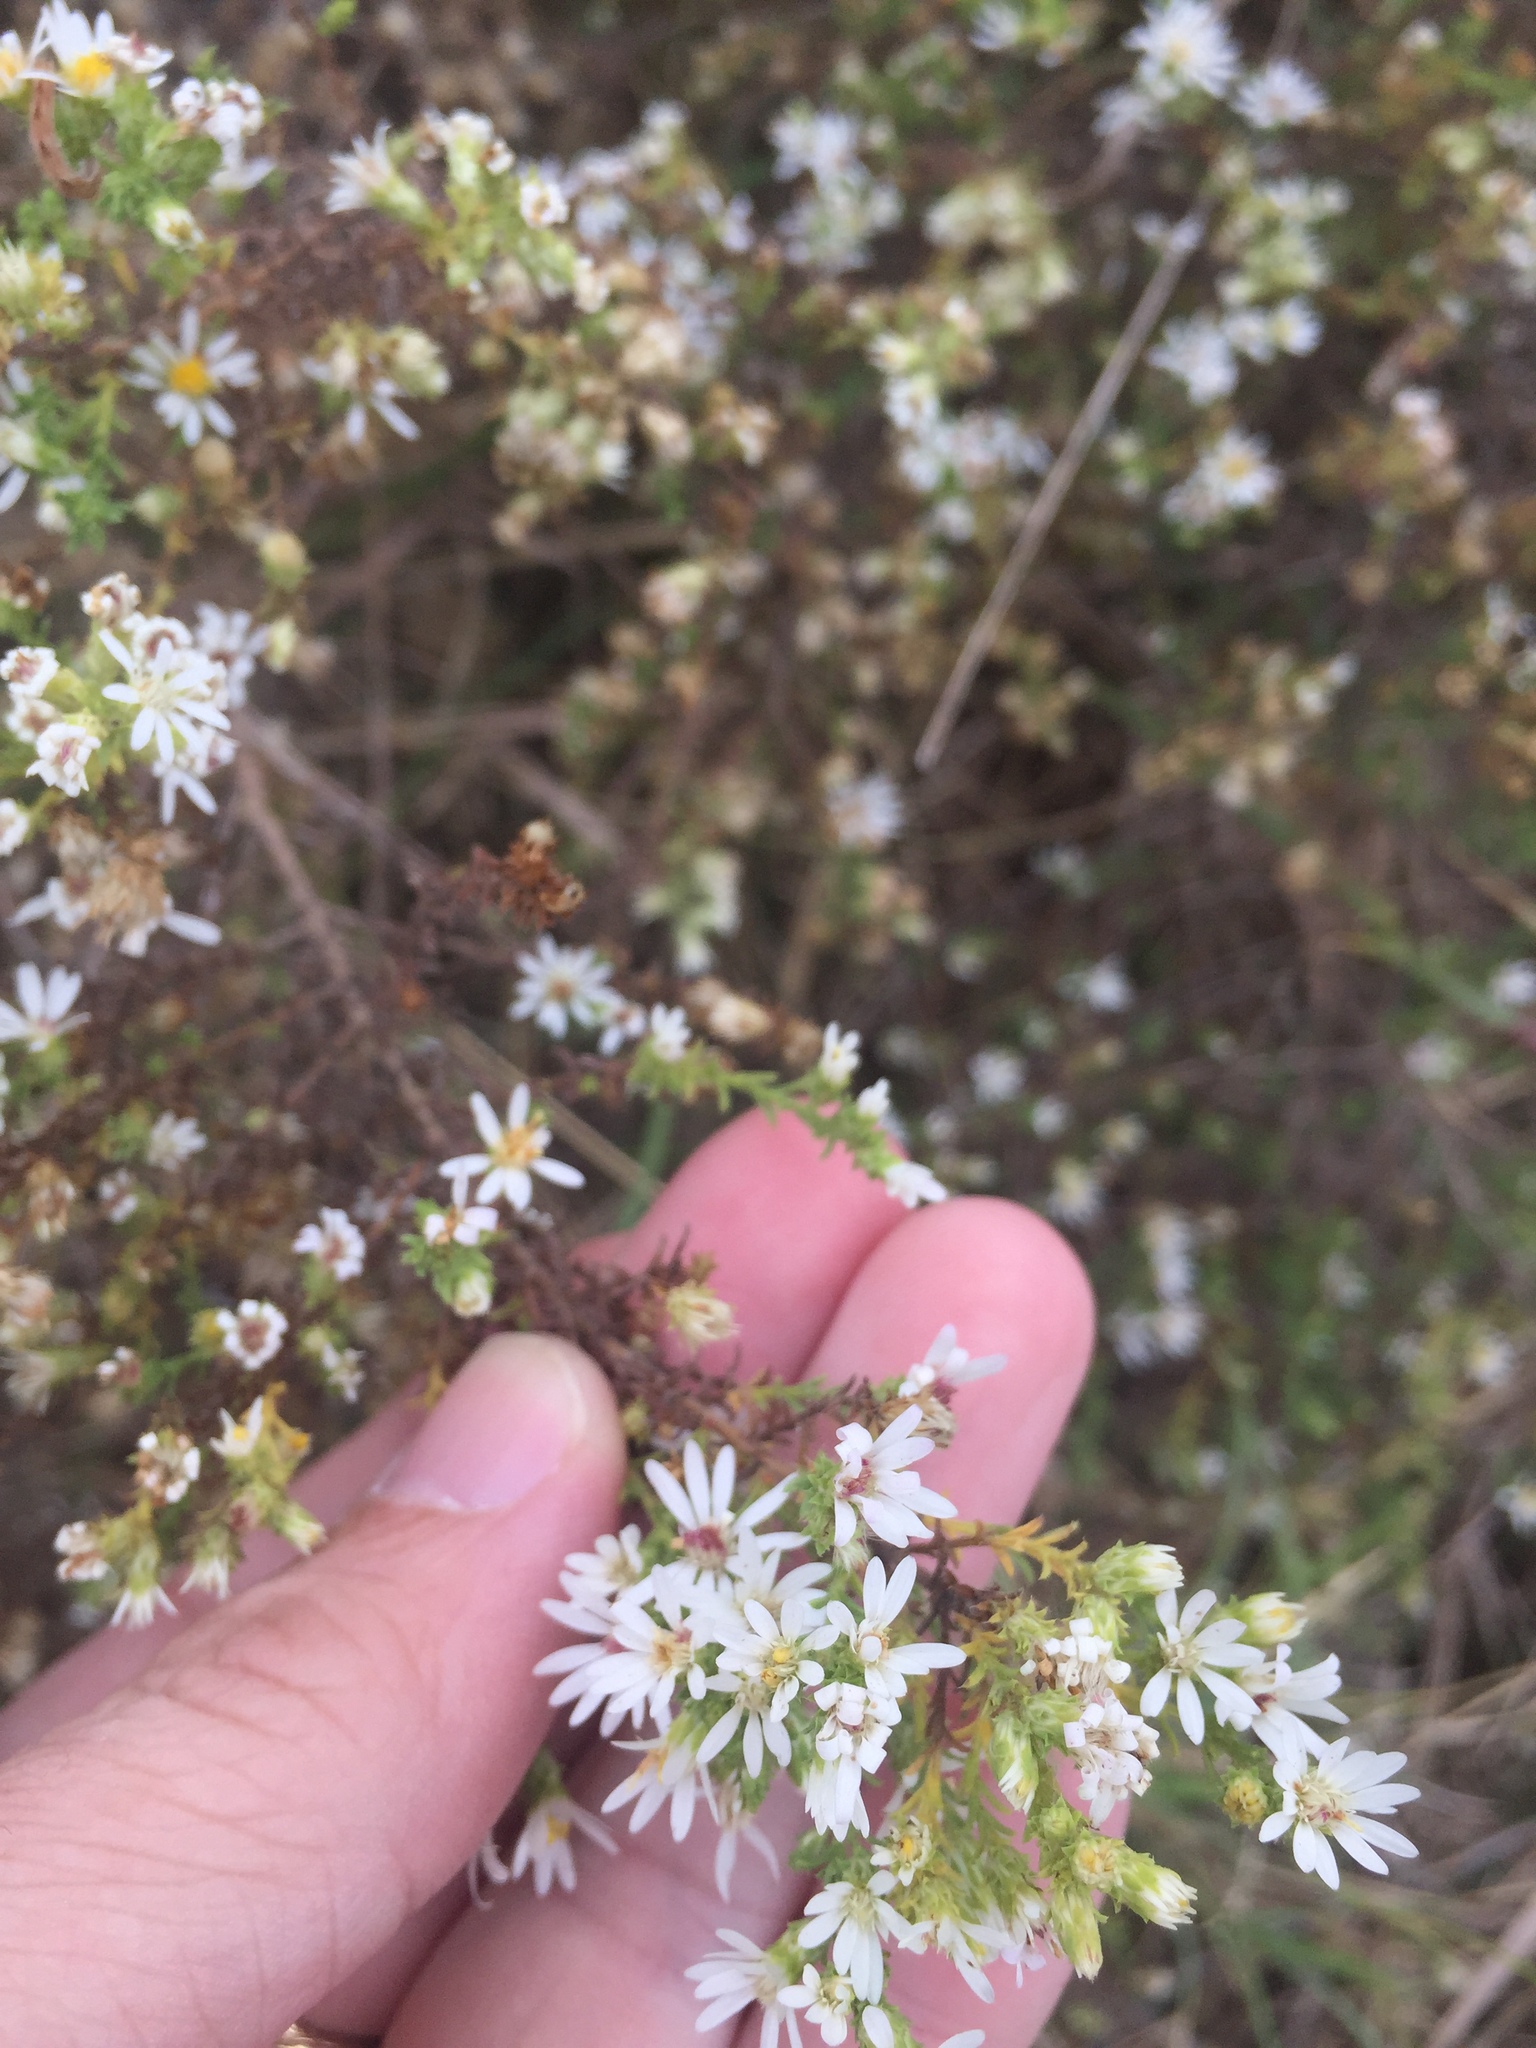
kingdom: Plantae
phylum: Tracheophyta
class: Magnoliopsida
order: Asterales
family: Asteraceae
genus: Symphyotrichum
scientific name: Symphyotrichum ericoides
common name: Heath aster
